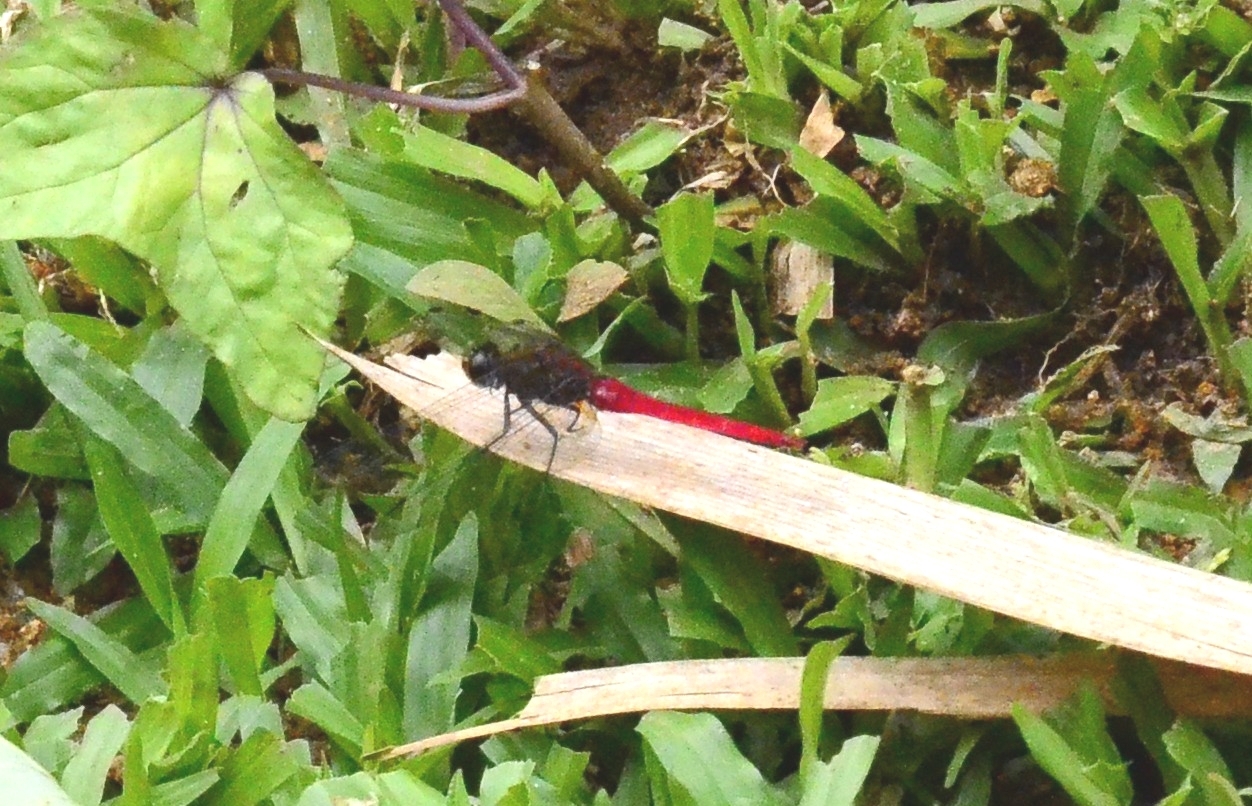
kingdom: Animalia
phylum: Arthropoda
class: Insecta
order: Odonata
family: Libellulidae
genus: Orthetrum
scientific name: Orthetrum chrysis
